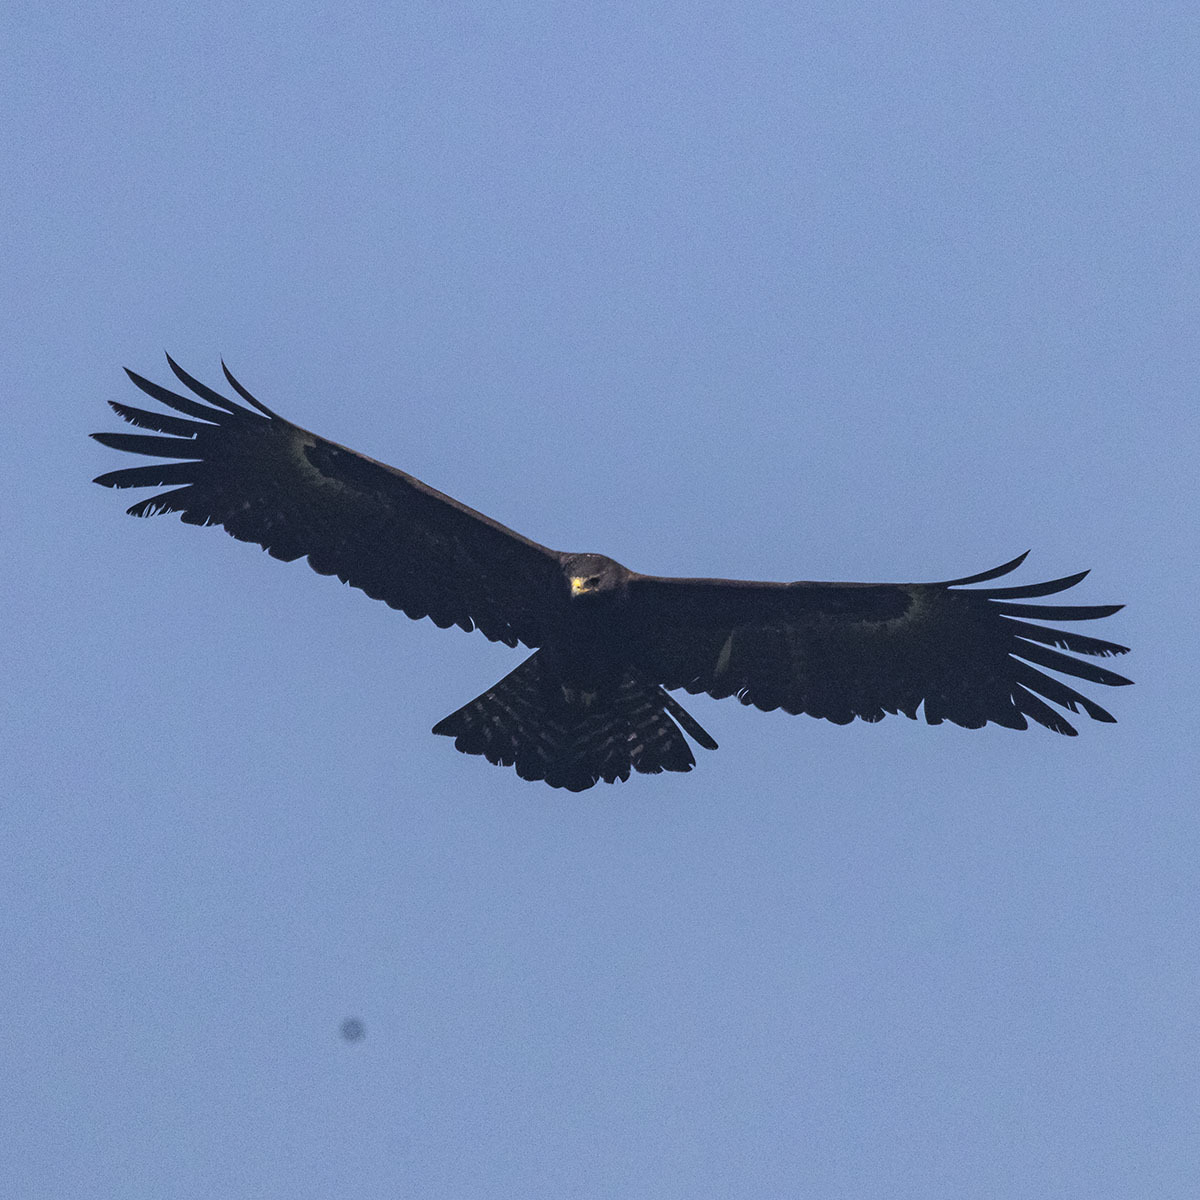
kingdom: Animalia
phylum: Chordata
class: Aves
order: Accipitriformes
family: Accipitridae
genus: Ictinaetus
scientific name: Ictinaetus malayensis
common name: Black eagle
